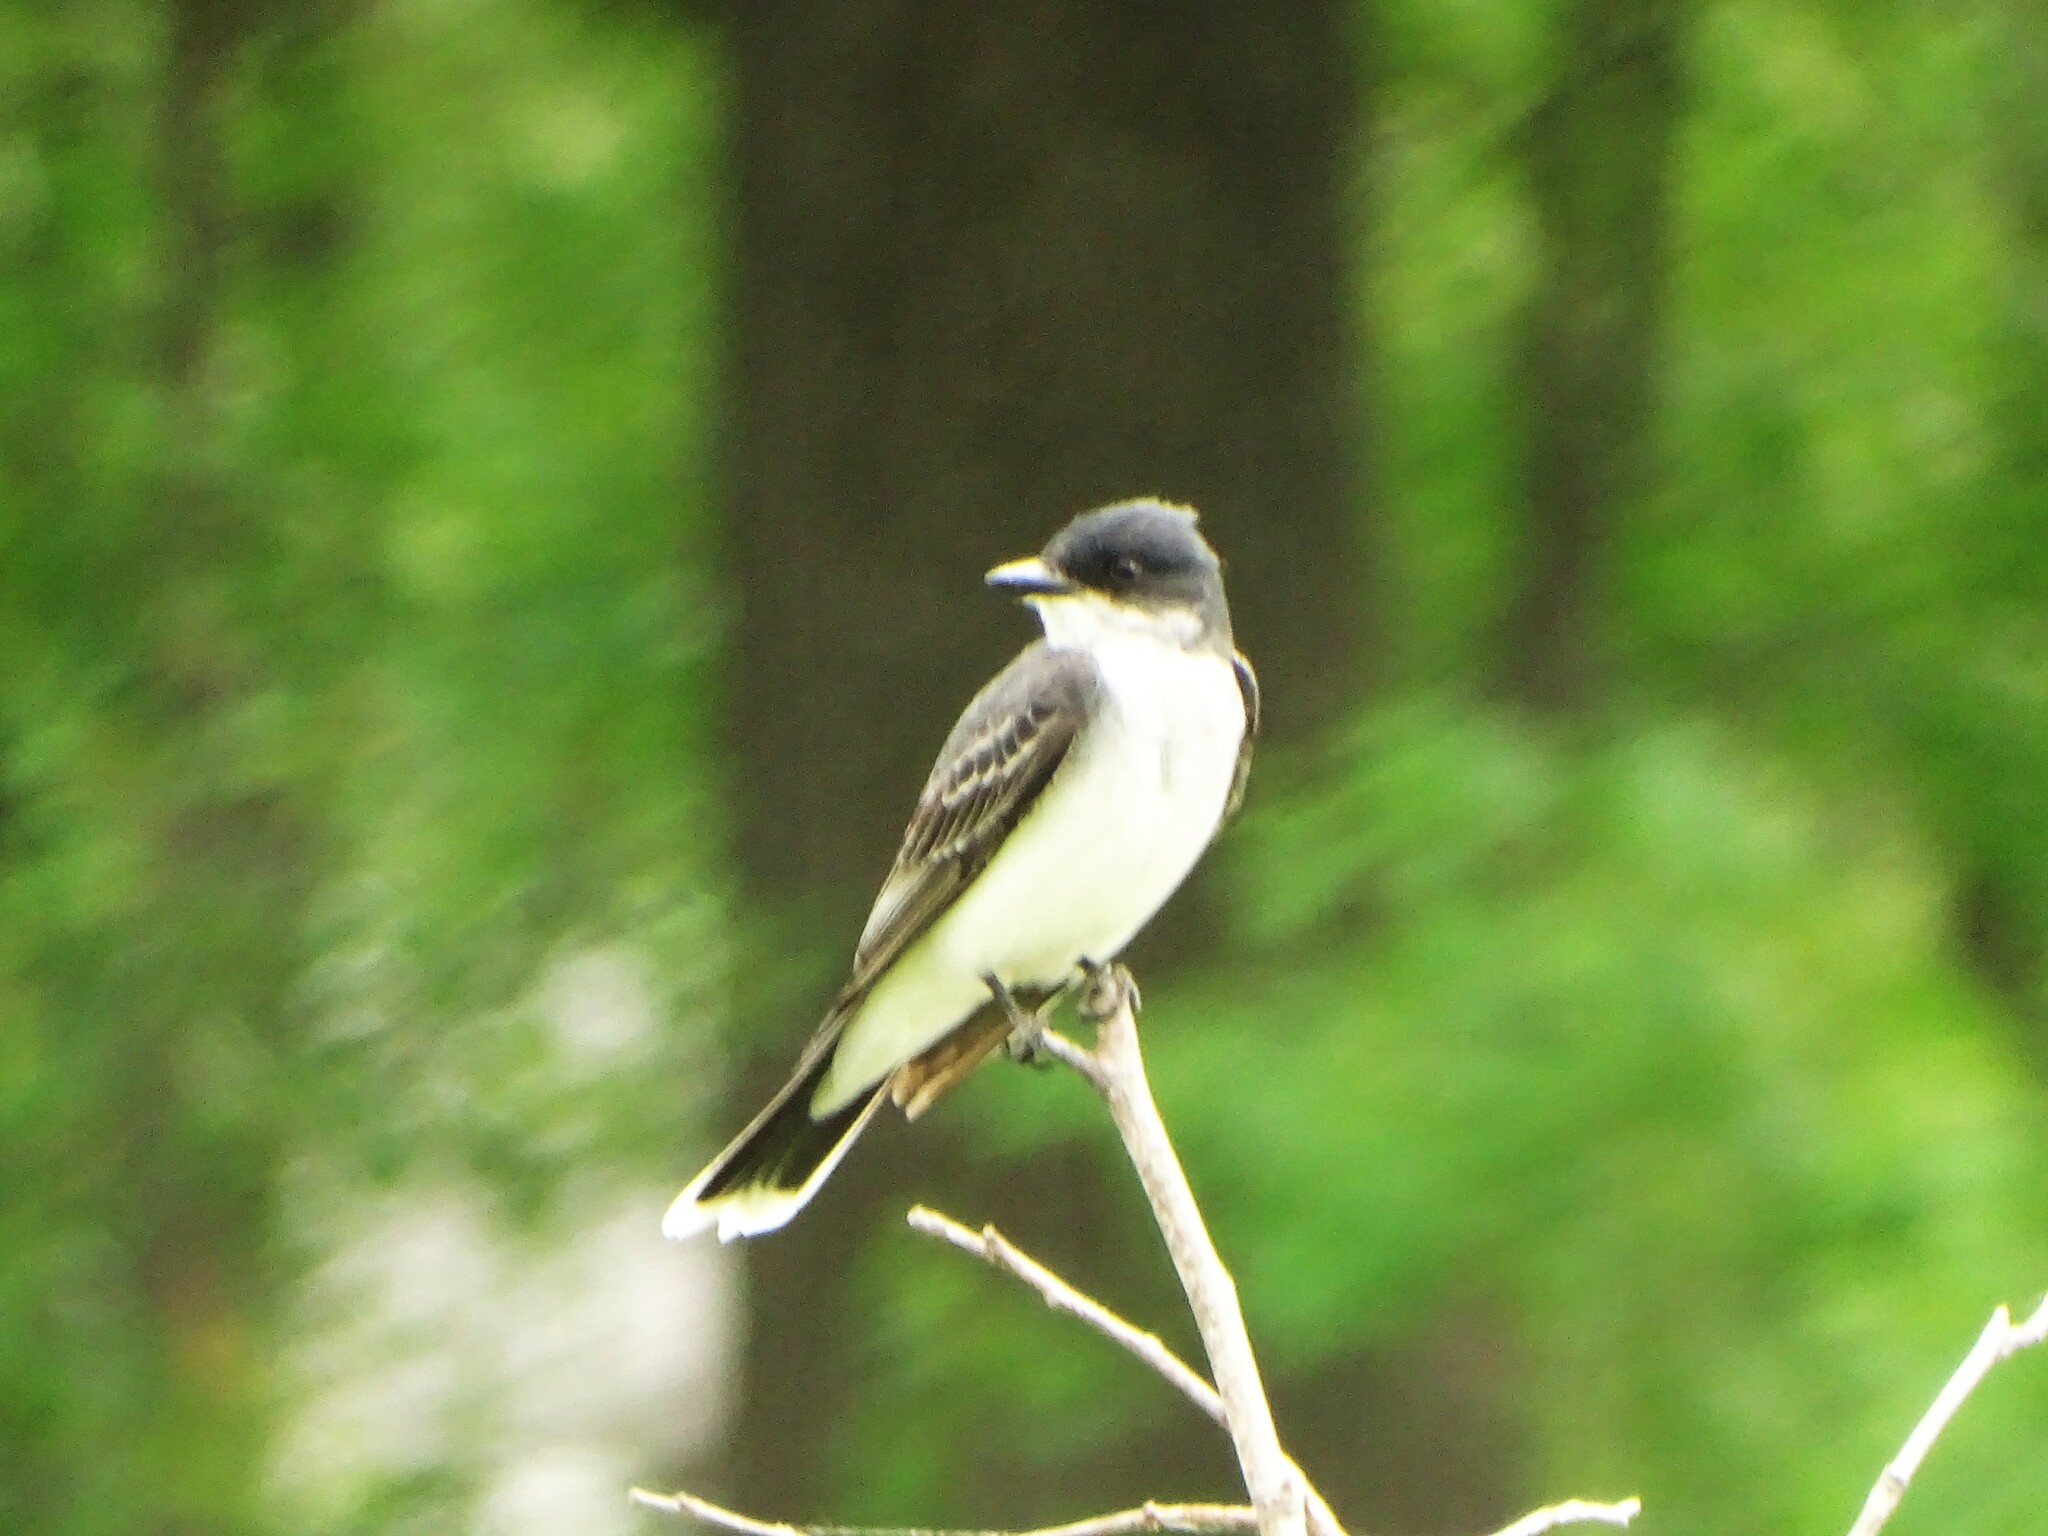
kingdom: Animalia
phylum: Chordata
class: Aves
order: Passeriformes
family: Tyrannidae
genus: Tyrannus
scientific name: Tyrannus tyrannus
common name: Eastern kingbird
